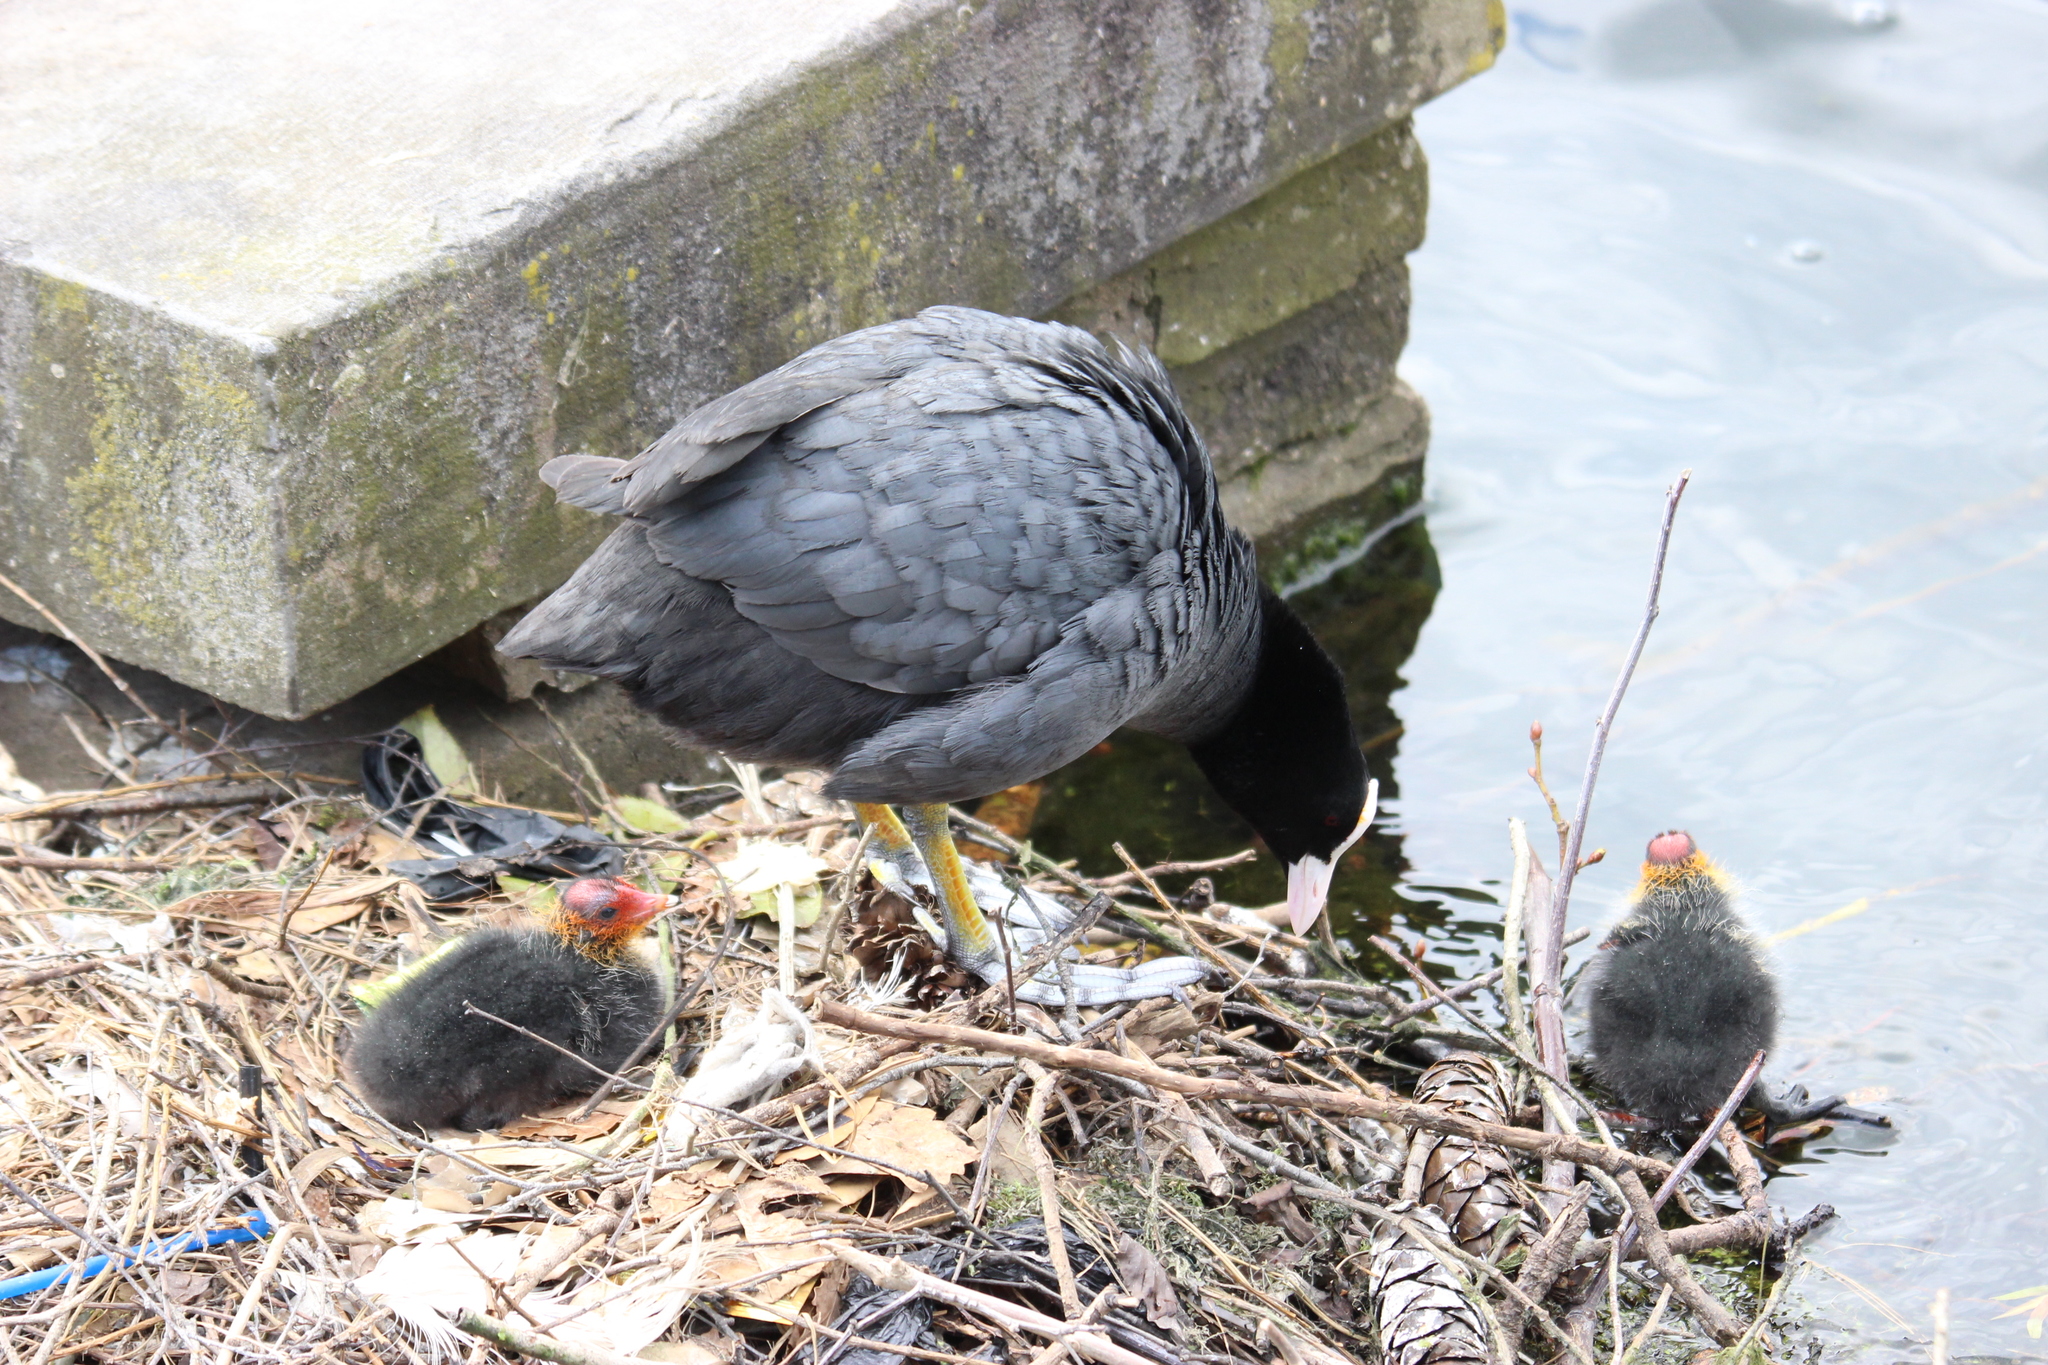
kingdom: Animalia
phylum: Chordata
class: Aves
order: Gruiformes
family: Rallidae
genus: Fulica
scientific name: Fulica atra
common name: Eurasian coot
